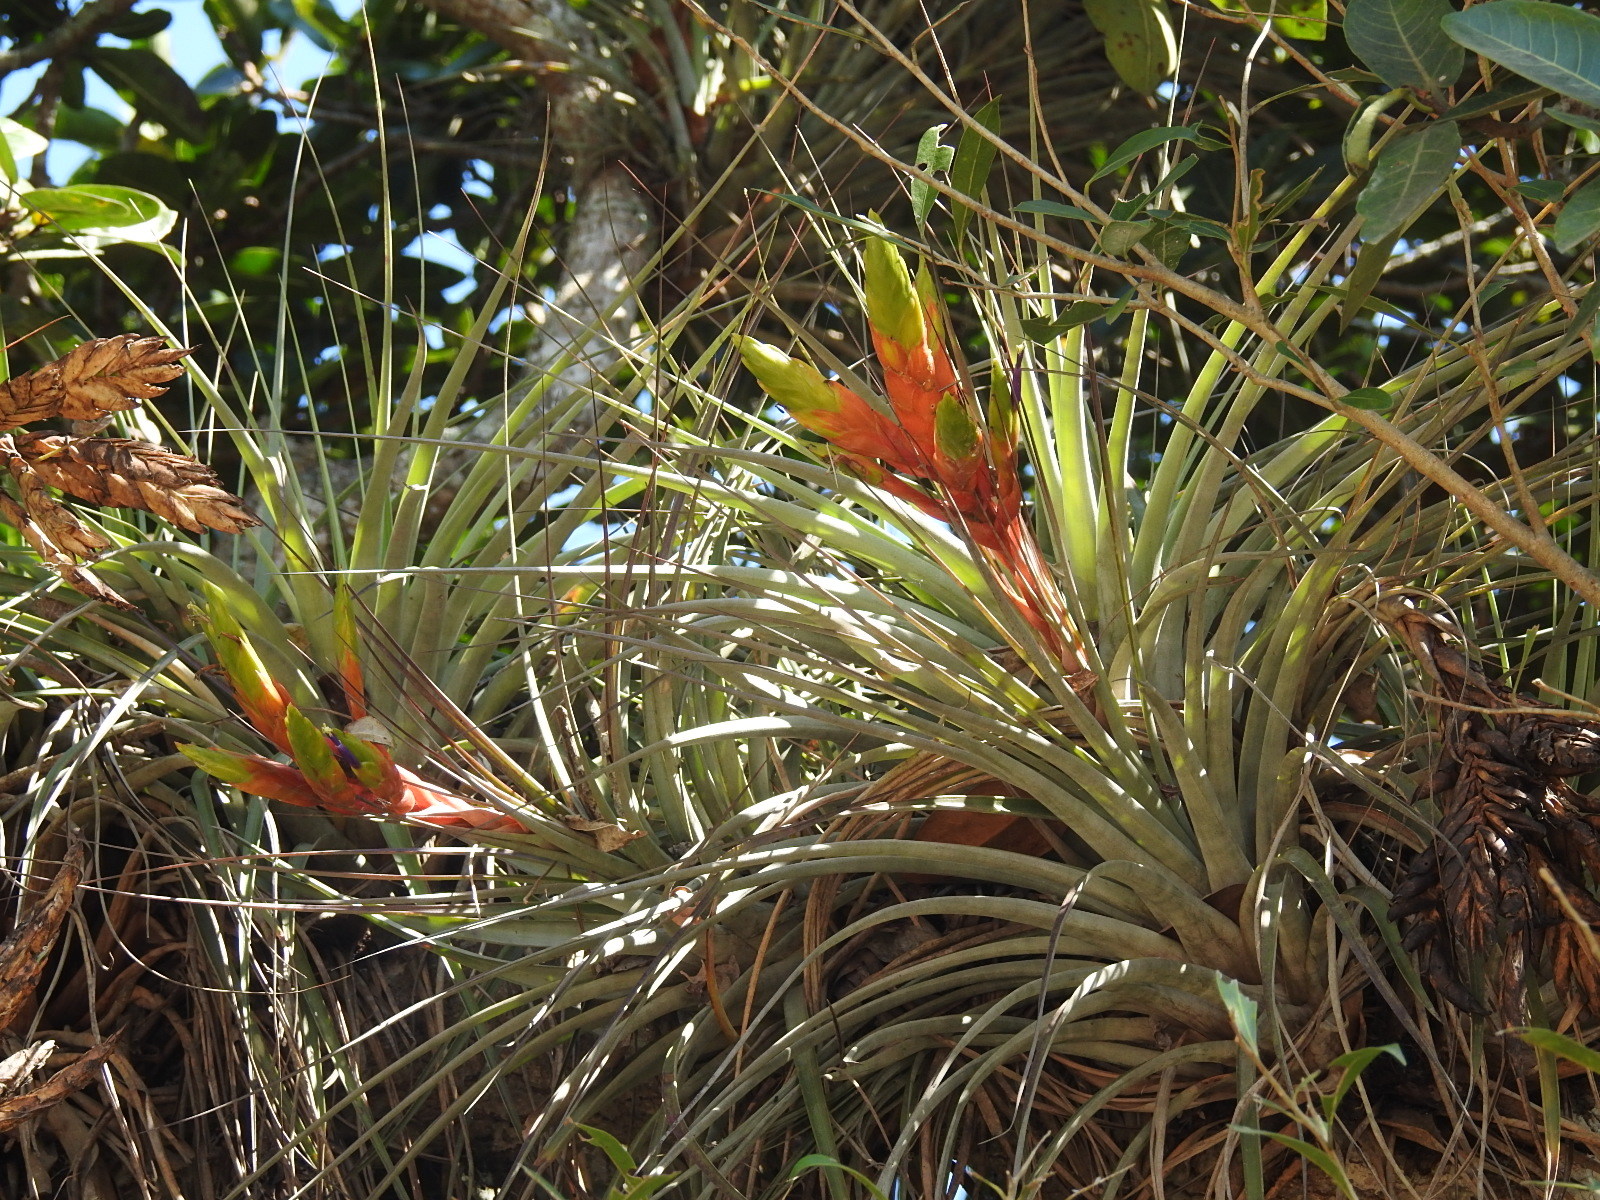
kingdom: Plantae
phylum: Tracheophyta
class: Liliopsida
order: Poales
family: Bromeliaceae
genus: Tillandsia
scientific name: Tillandsia fasciculata
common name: Giant airplant
